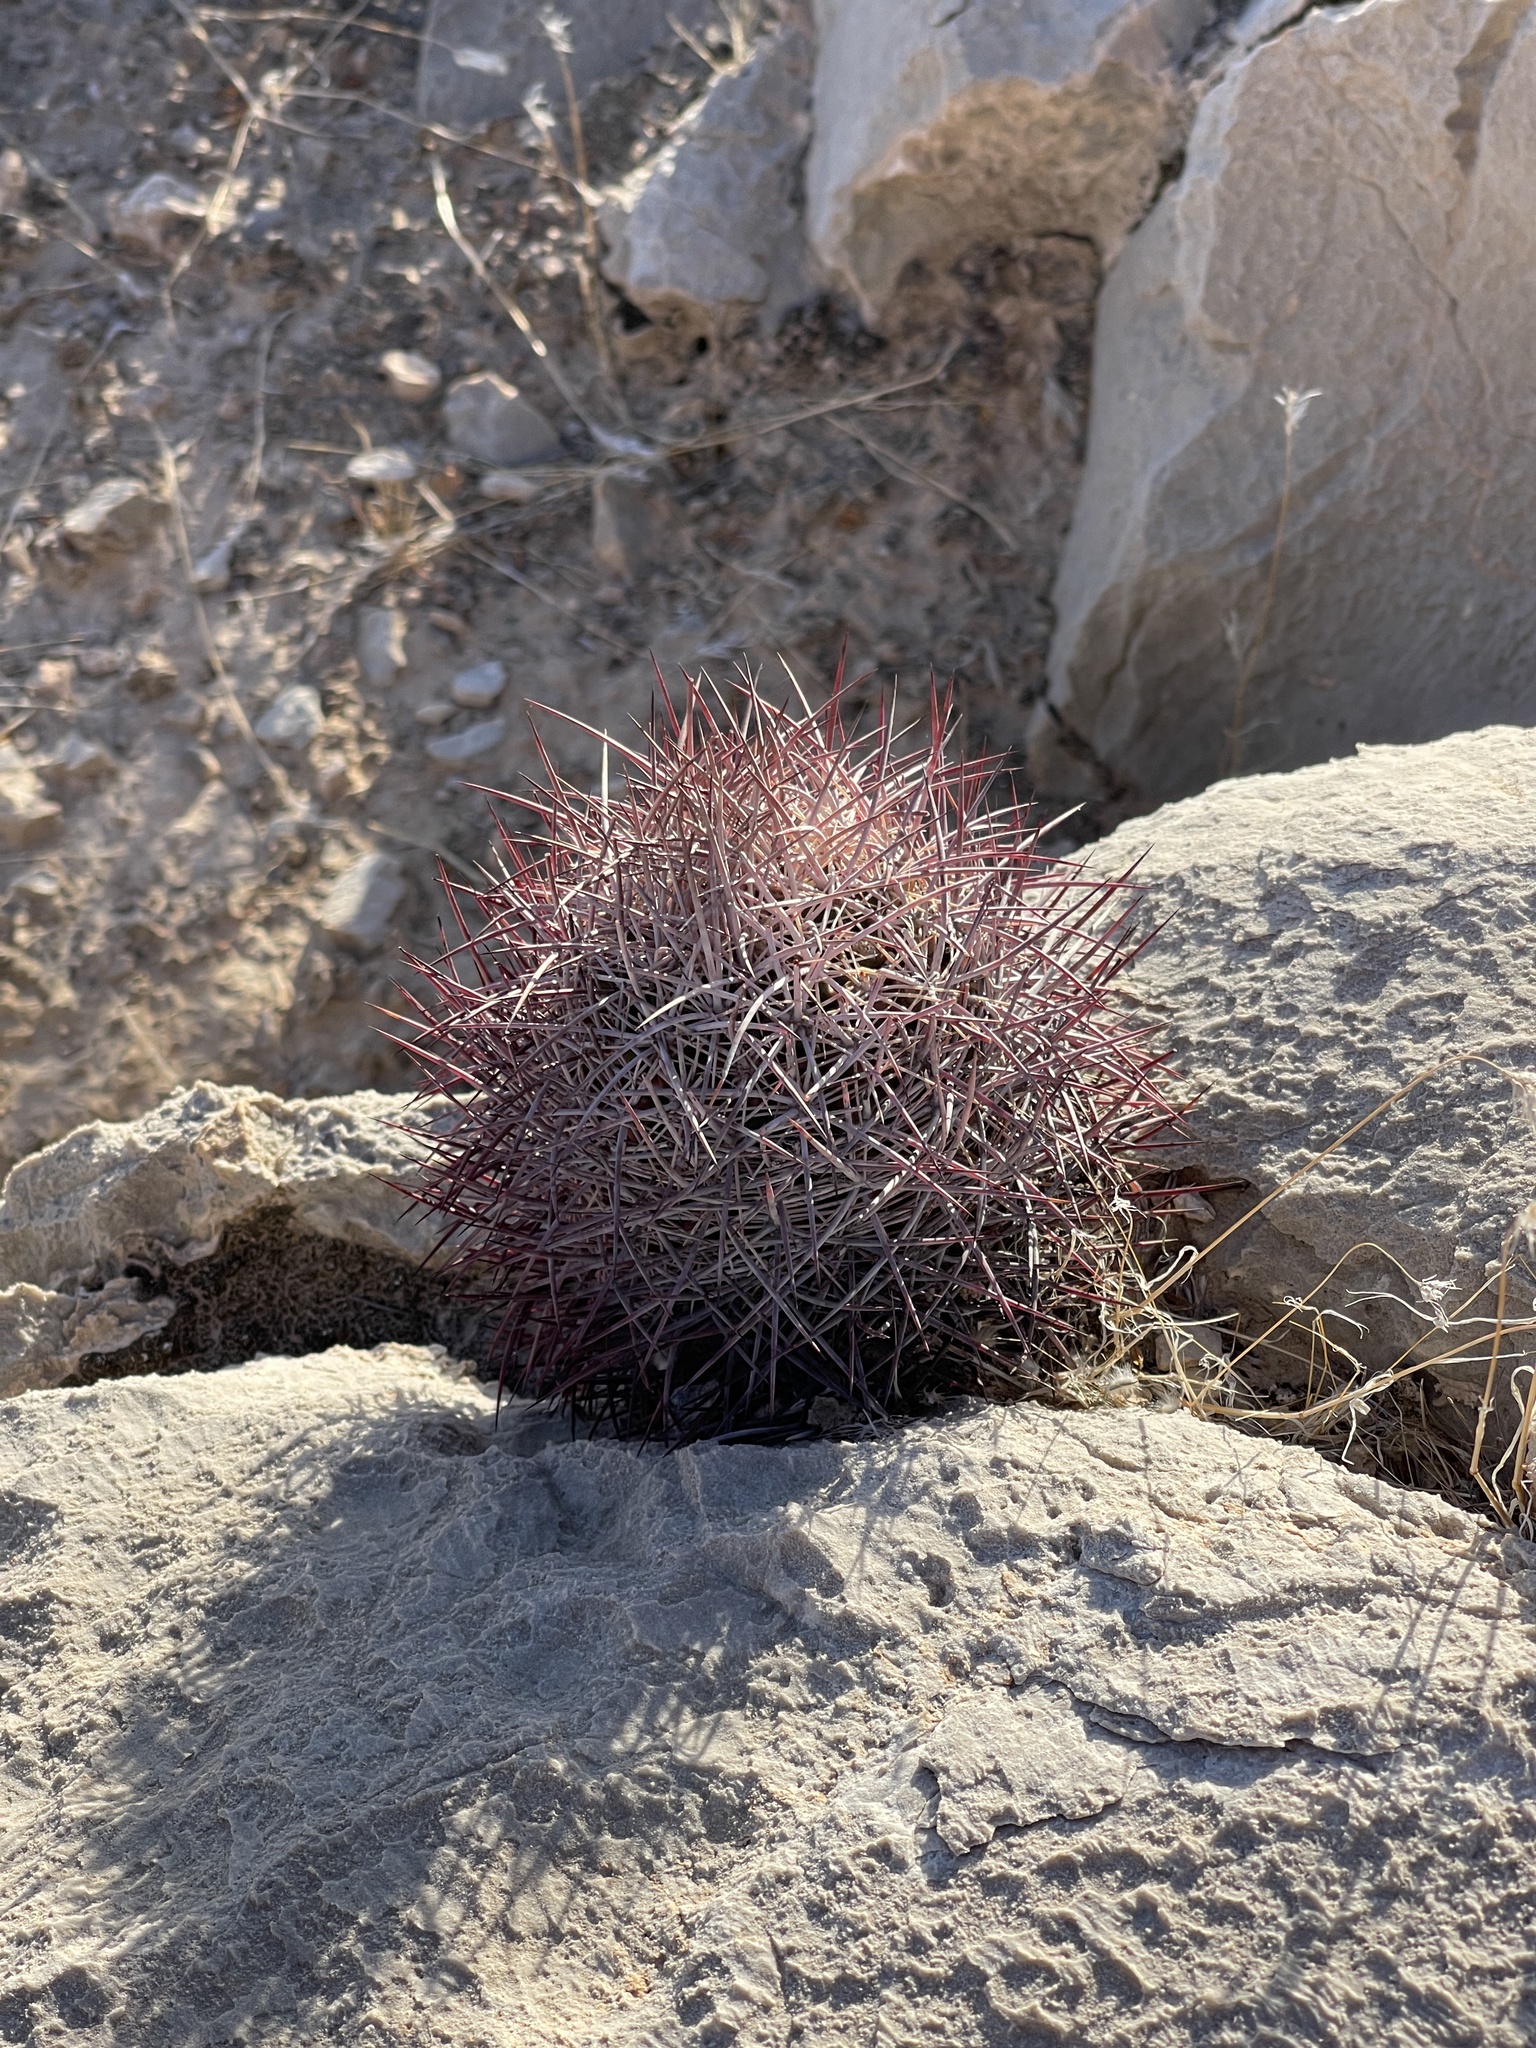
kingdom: Plantae
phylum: Tracheophyta
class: Magnoliopsida
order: Caryophyllales
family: Cactaceae
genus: Sclerocactus
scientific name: Sclerocactus johnsonii
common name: Eight-spine fishhook cactus
